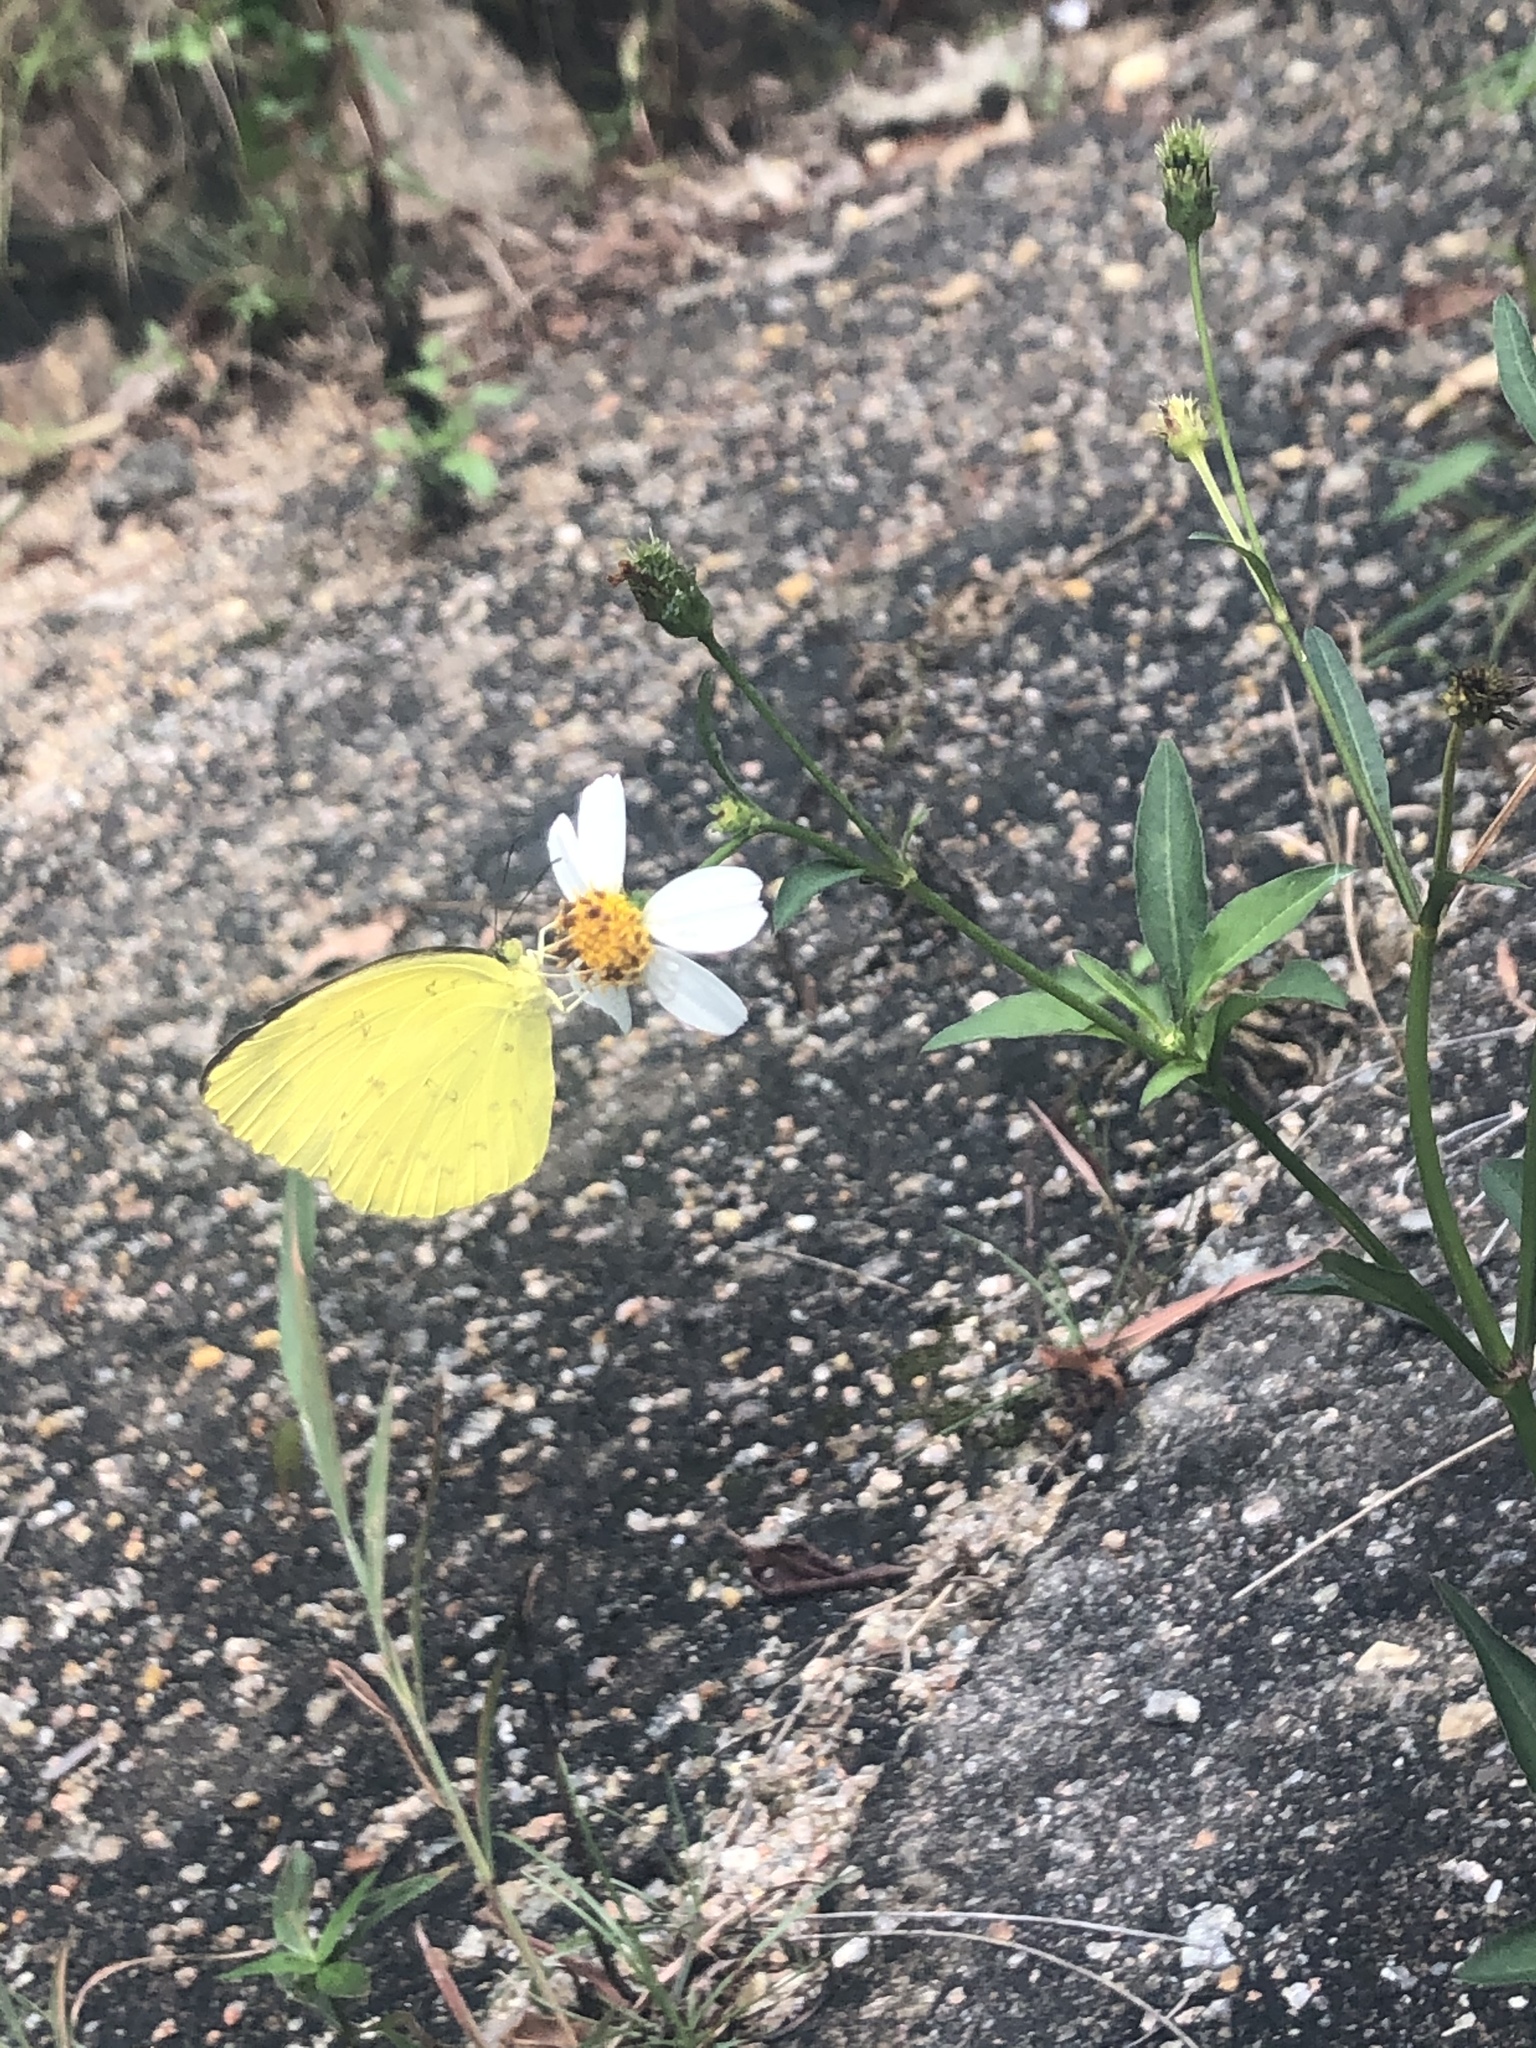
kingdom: Animalia
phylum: Arthropoda
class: Insecta
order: Lepidoptera
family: Pieridae
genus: Eurema
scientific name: Eurema blanda
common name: Three-spot grass yellow
